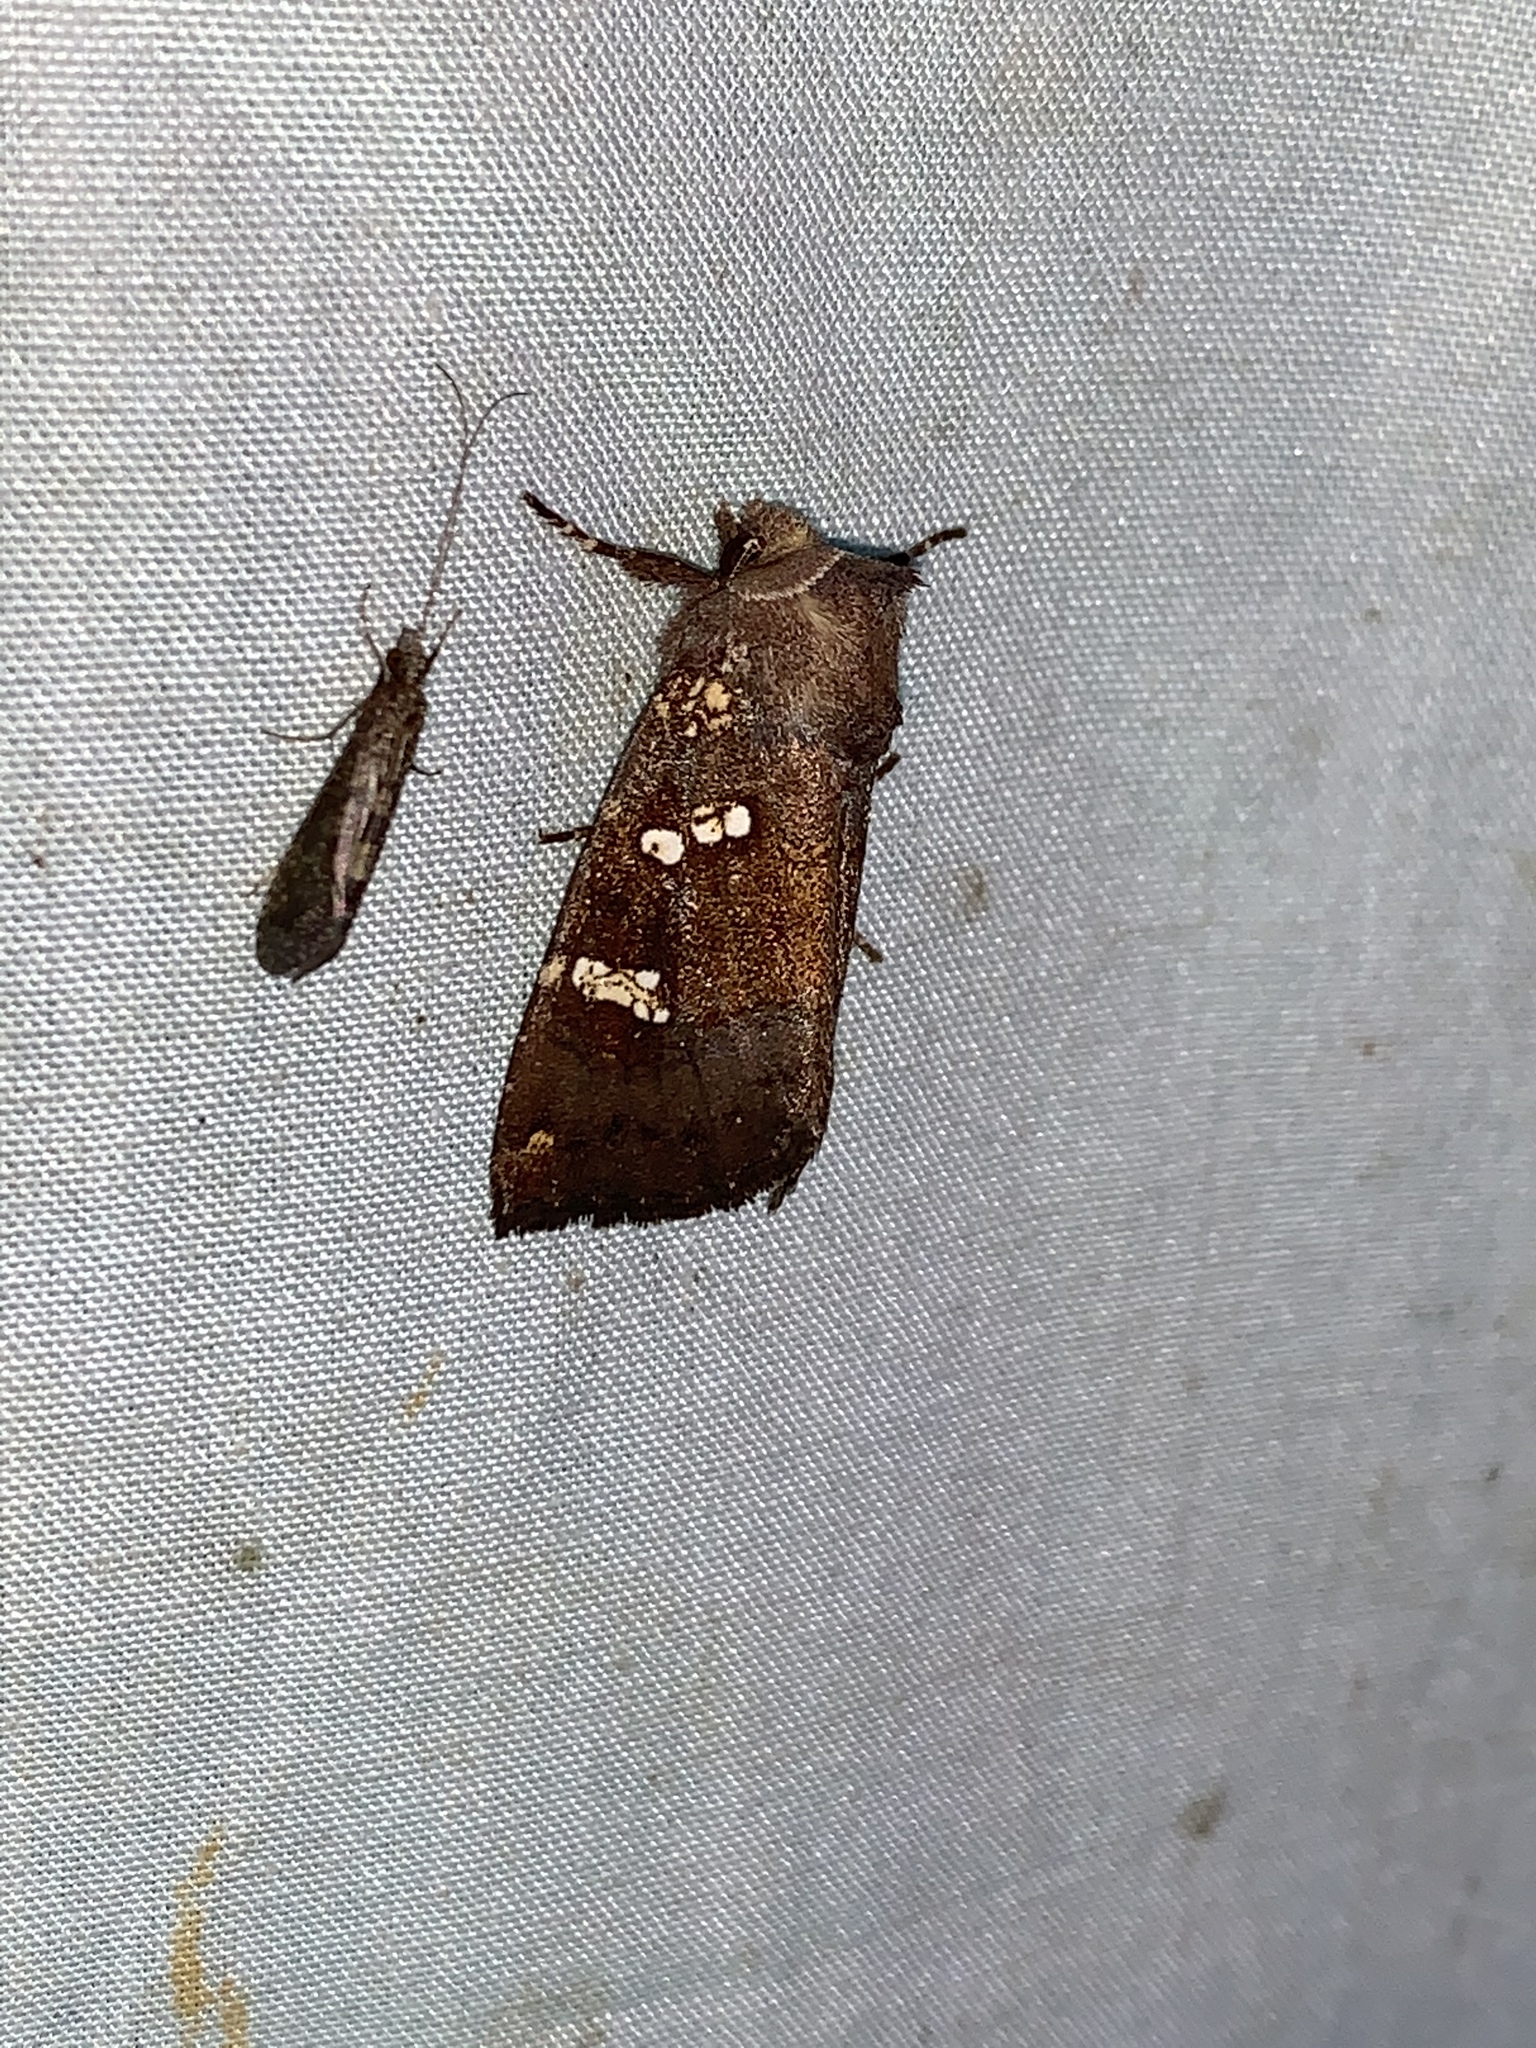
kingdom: Animalia
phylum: Arthropoda
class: Insecta
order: Lepidoptera
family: Noctuidae
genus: Papaipema
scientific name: Papaipema unimoda
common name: Meadow rue borer moth
